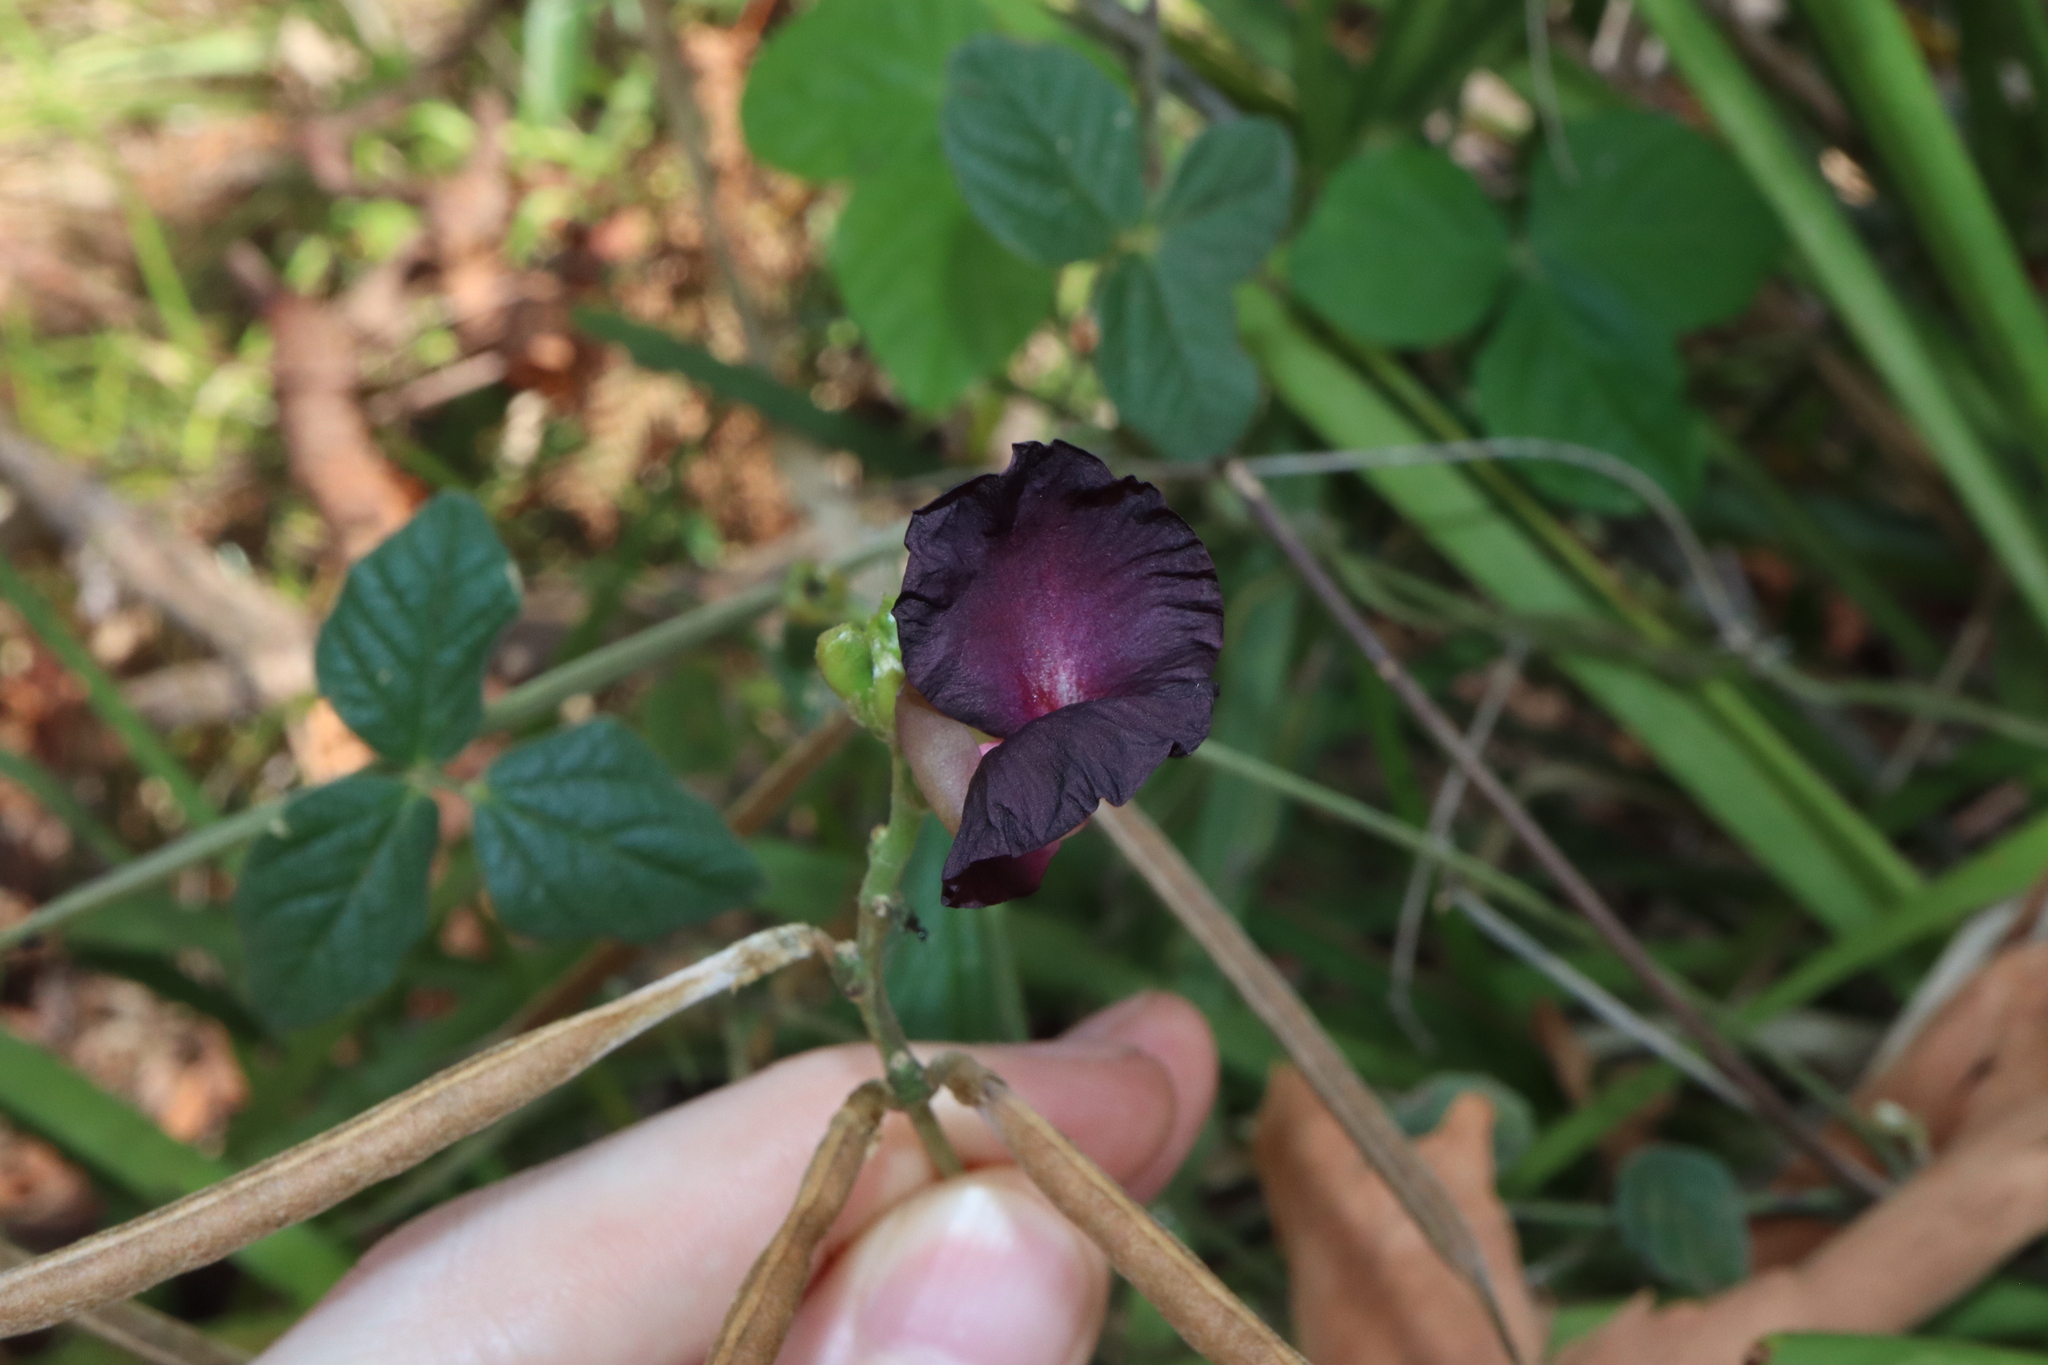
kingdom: Plantae
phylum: Tracheophyta
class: Magnoliopsida
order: Fabales
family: Fabaceae
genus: Macroptilium
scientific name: Macroptilium atropurpureum
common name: Purple bushbean
